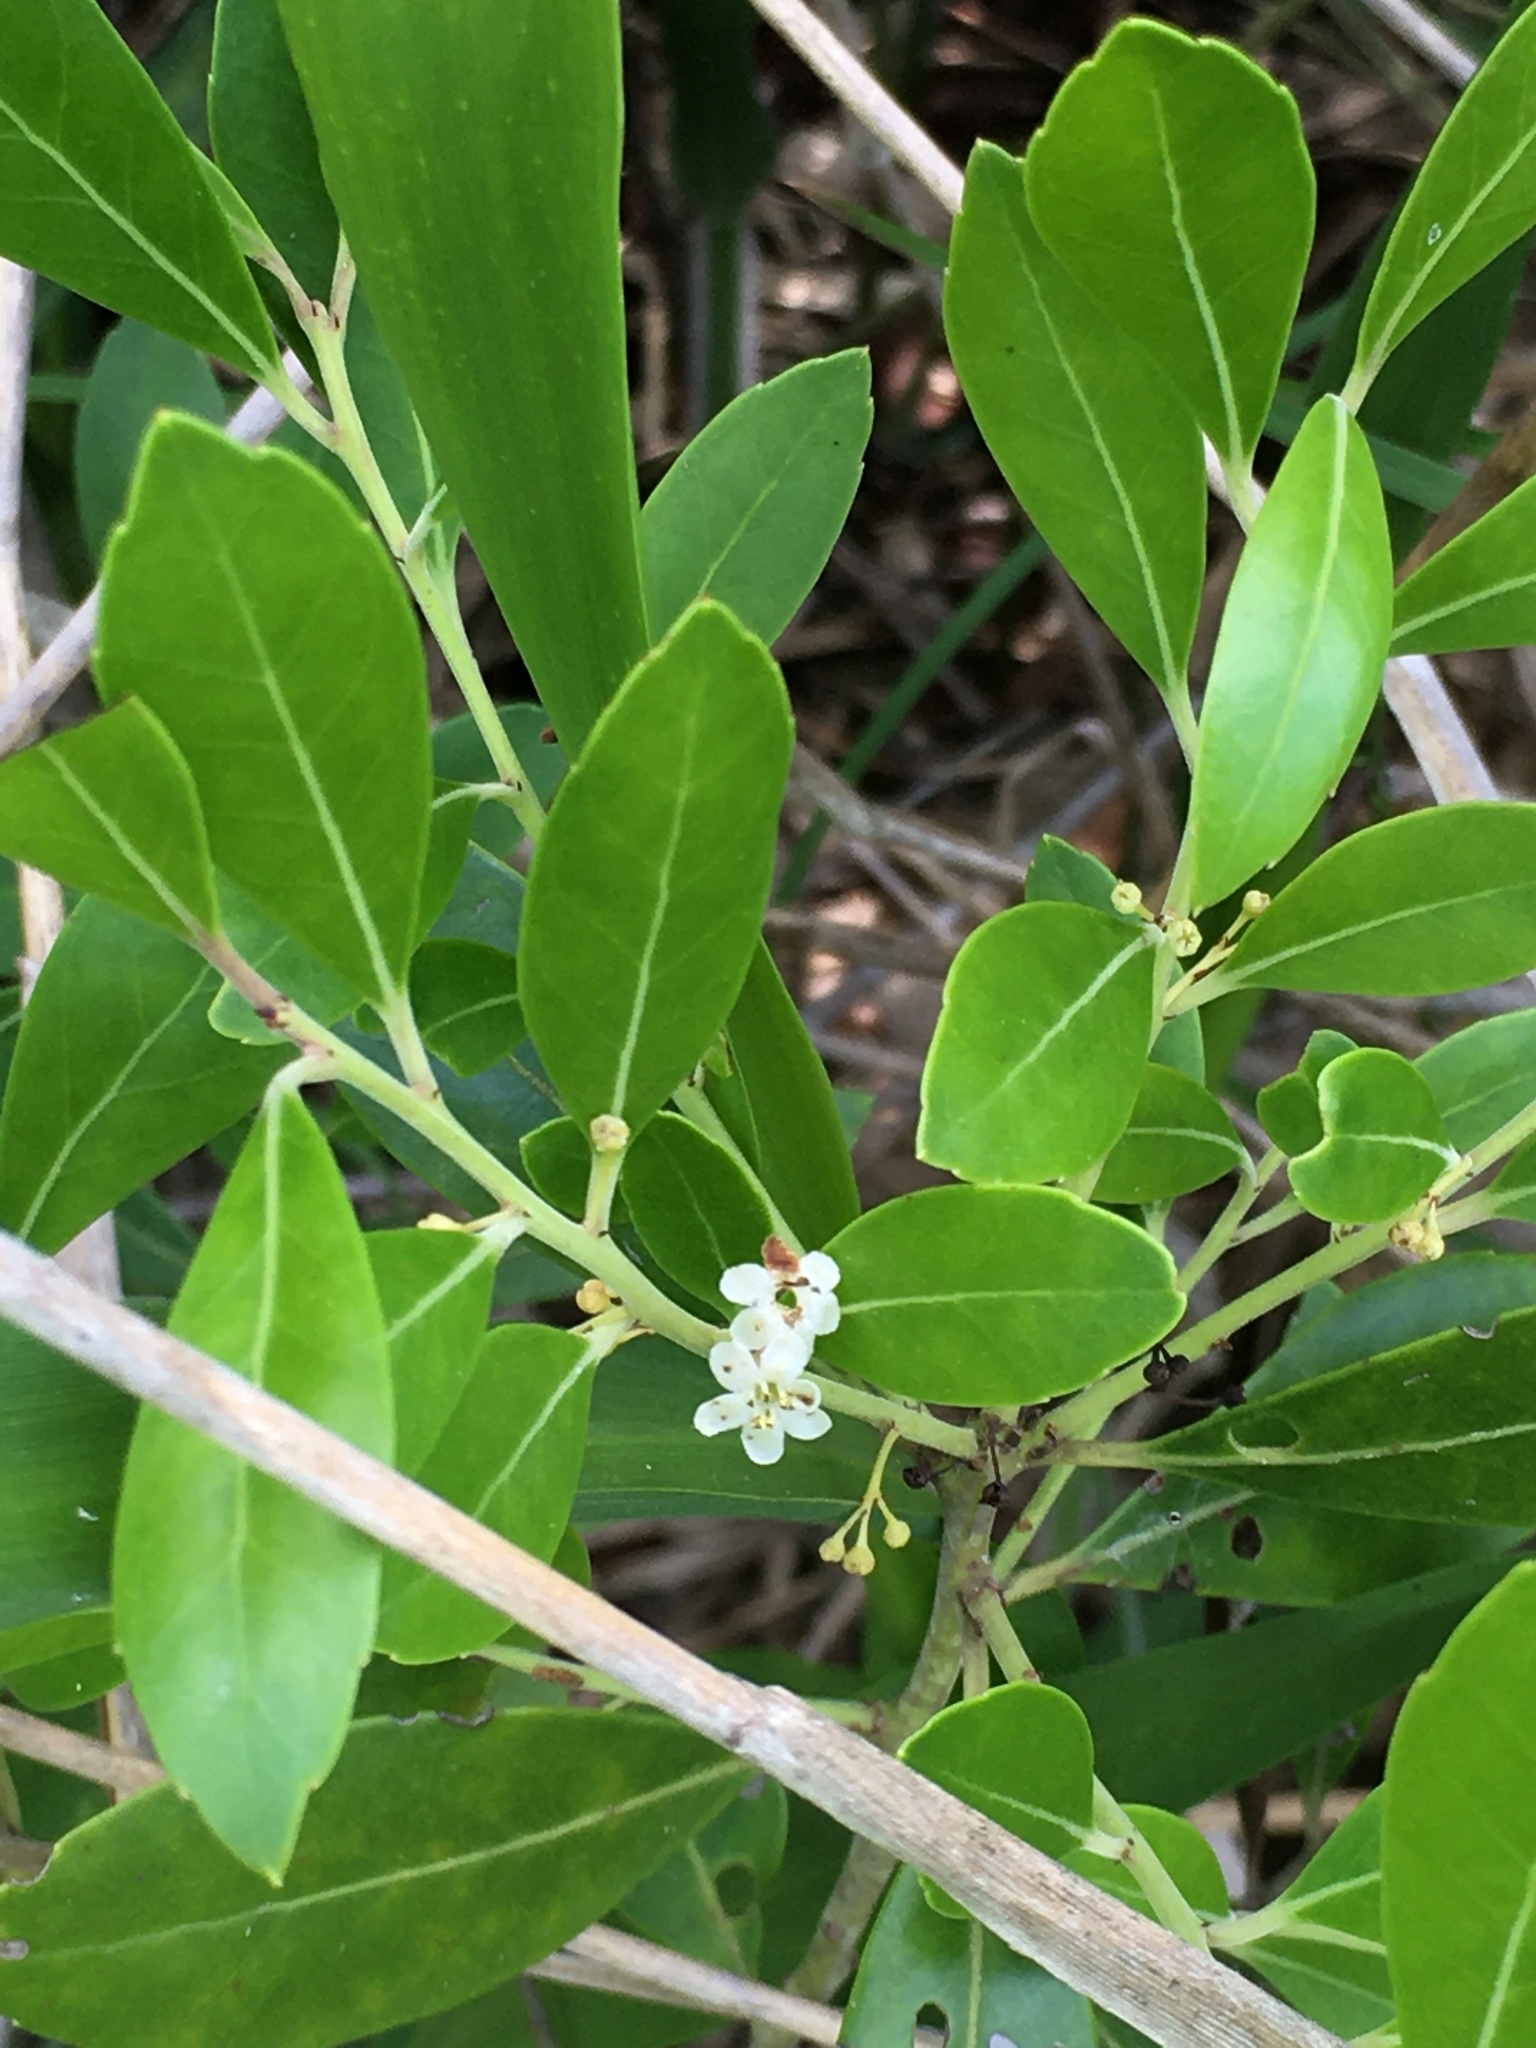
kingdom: Plantae
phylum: Tracheophyta
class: Magnoliopsida
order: Aquifoliales
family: Aquifoliaceae
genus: Ilex
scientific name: Ilex glabra
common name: Bitter gallberry
